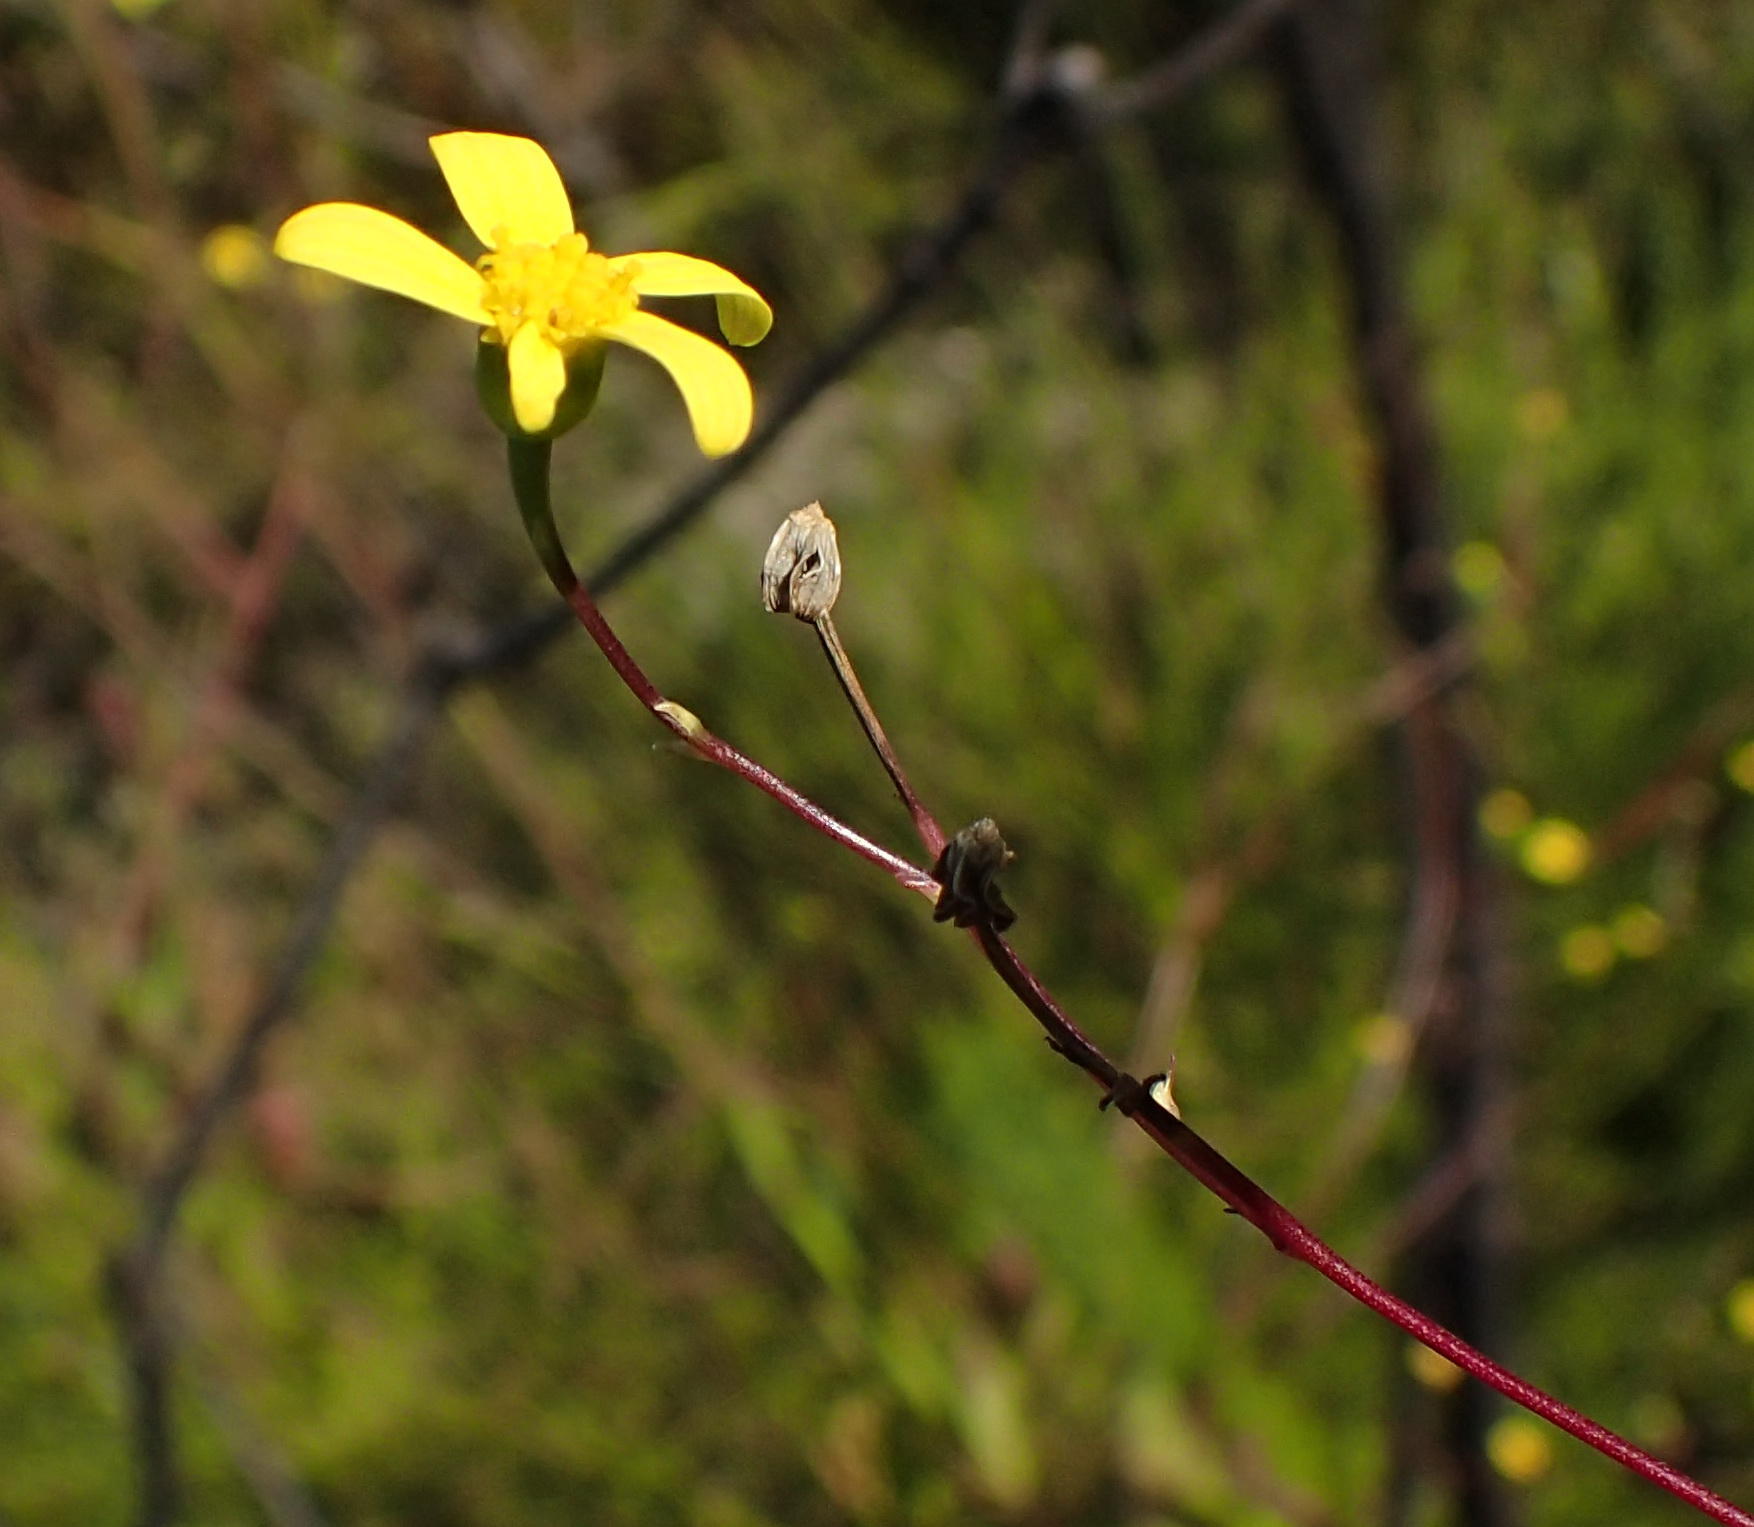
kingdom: Plantae
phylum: Tracheophyta
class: Magnoliopsida
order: Asterales
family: Asteraceae
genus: Othonna
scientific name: Othonna quinquedentata
